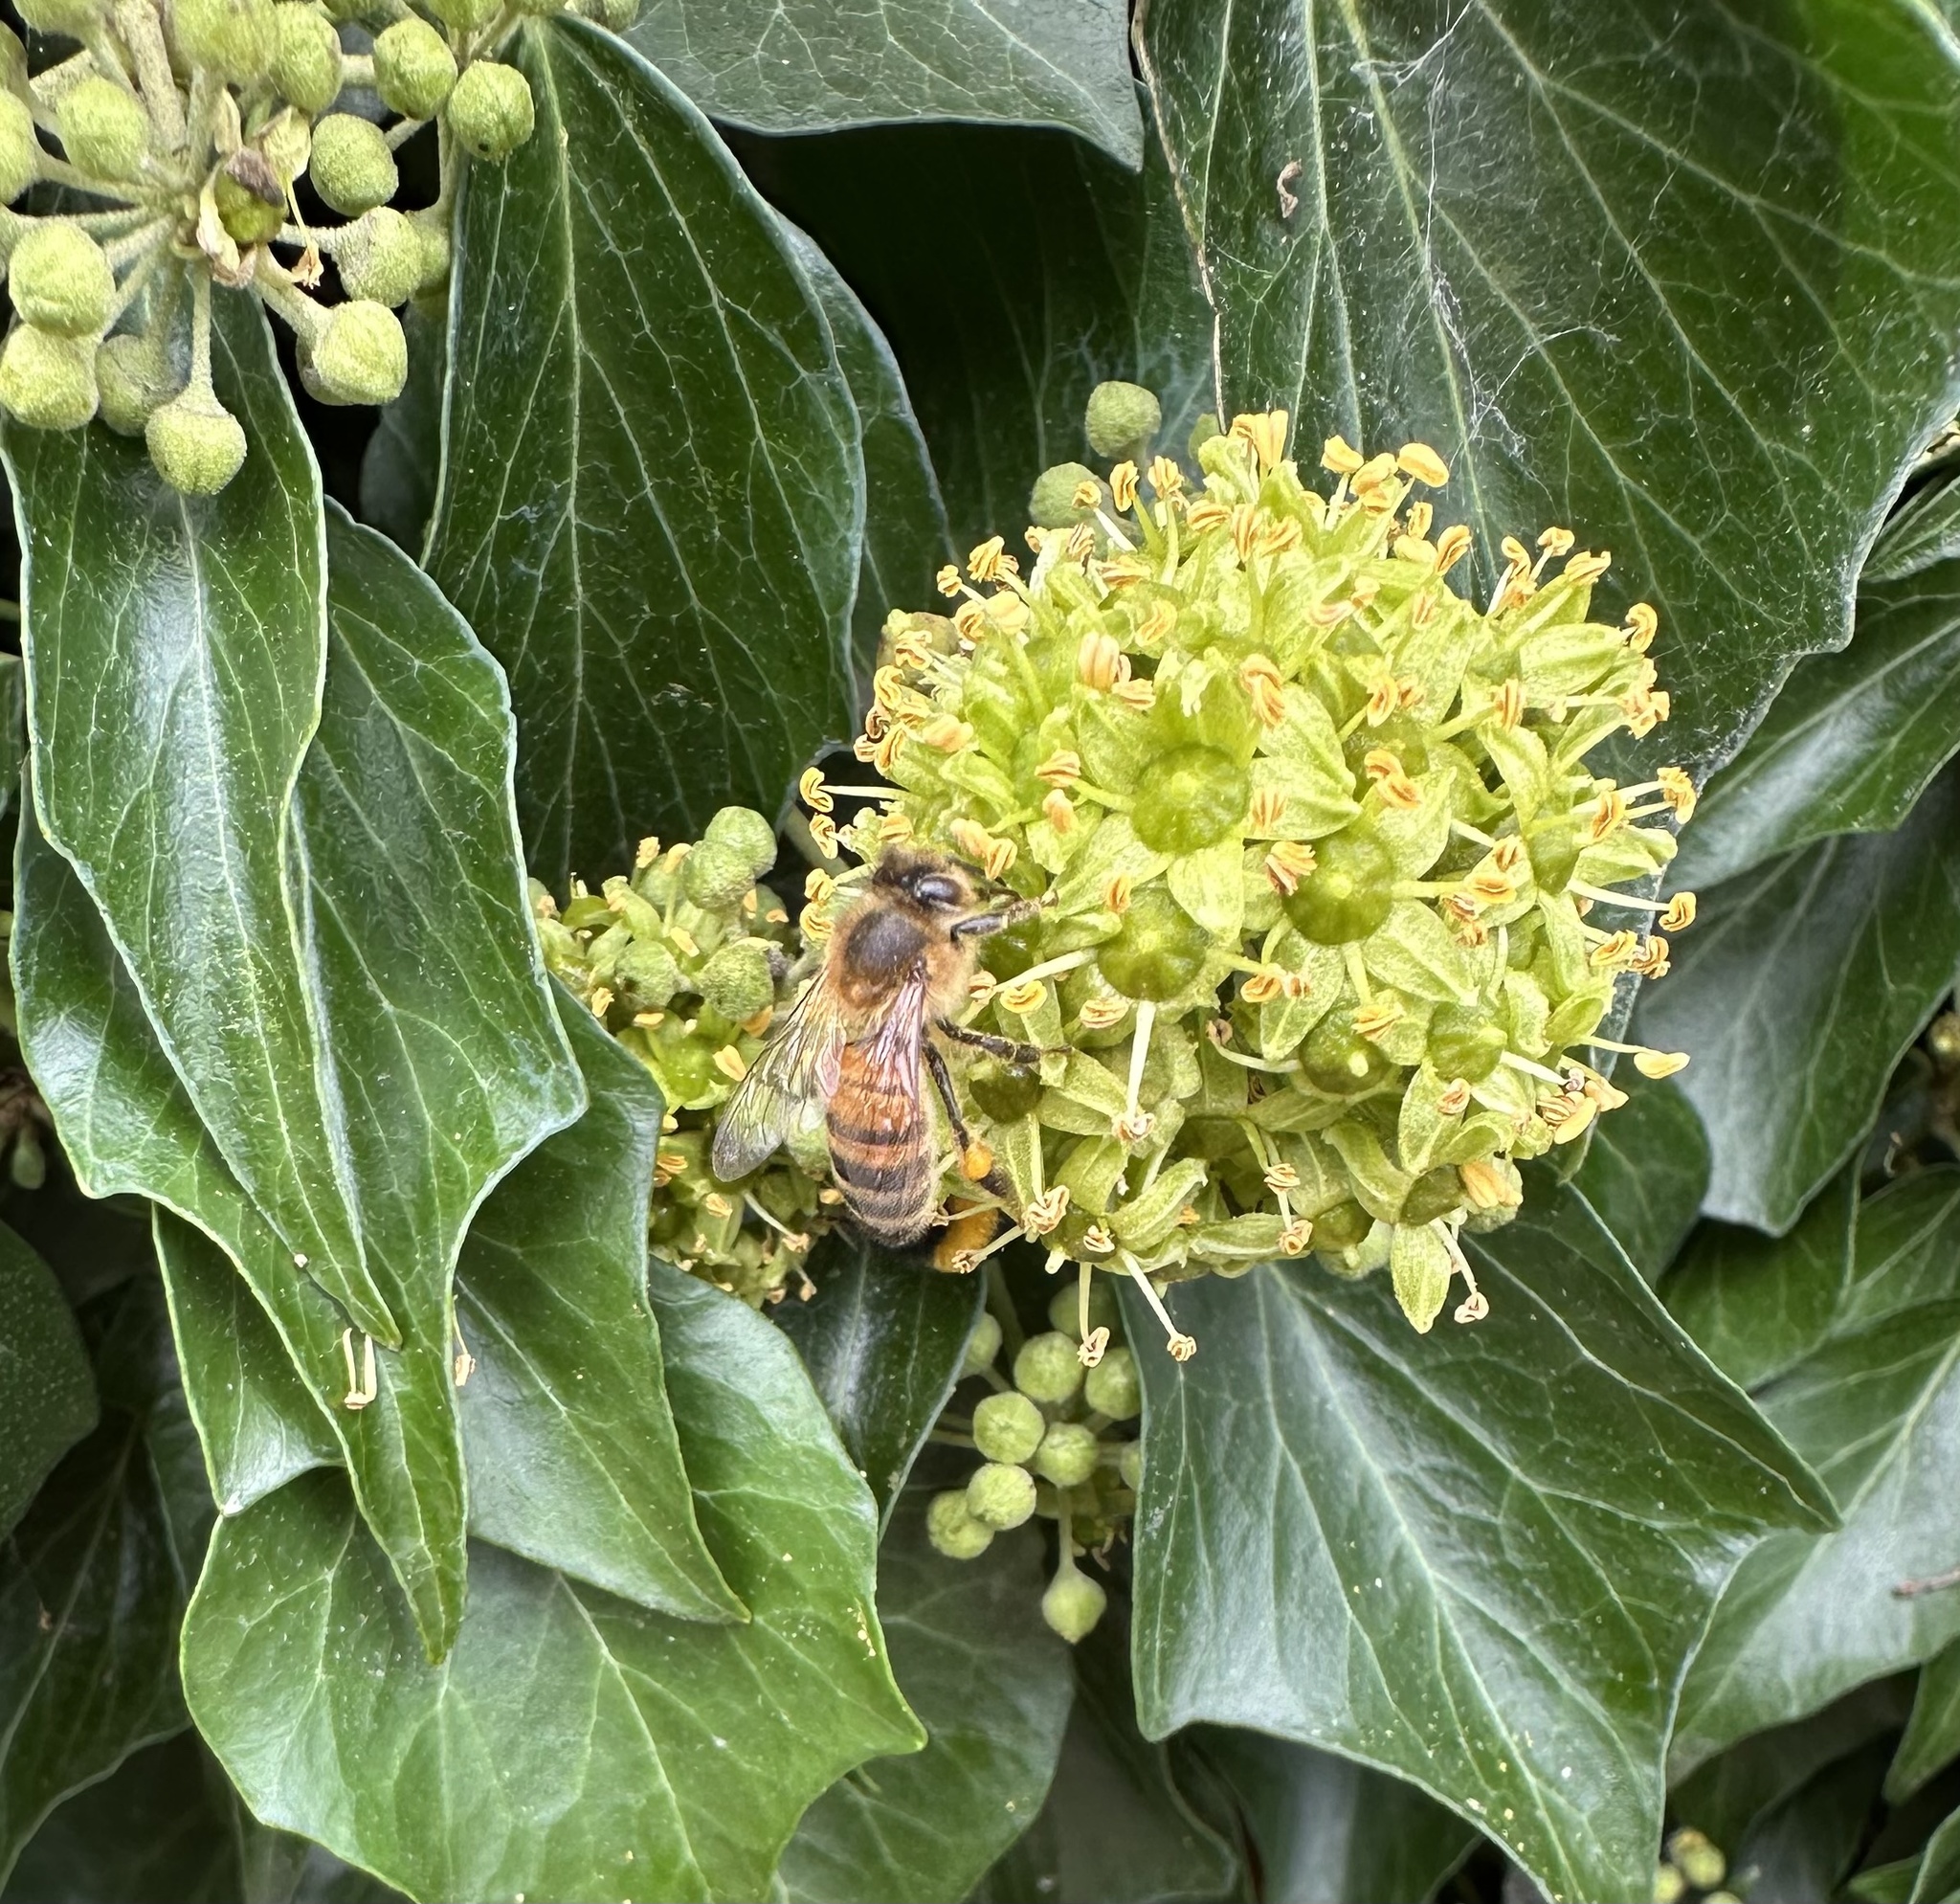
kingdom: Animalia
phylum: Arthropoda
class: Insecta
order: Hymenoptera
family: Apidae
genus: Apis
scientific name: Apis mellifera
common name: Honey bee
